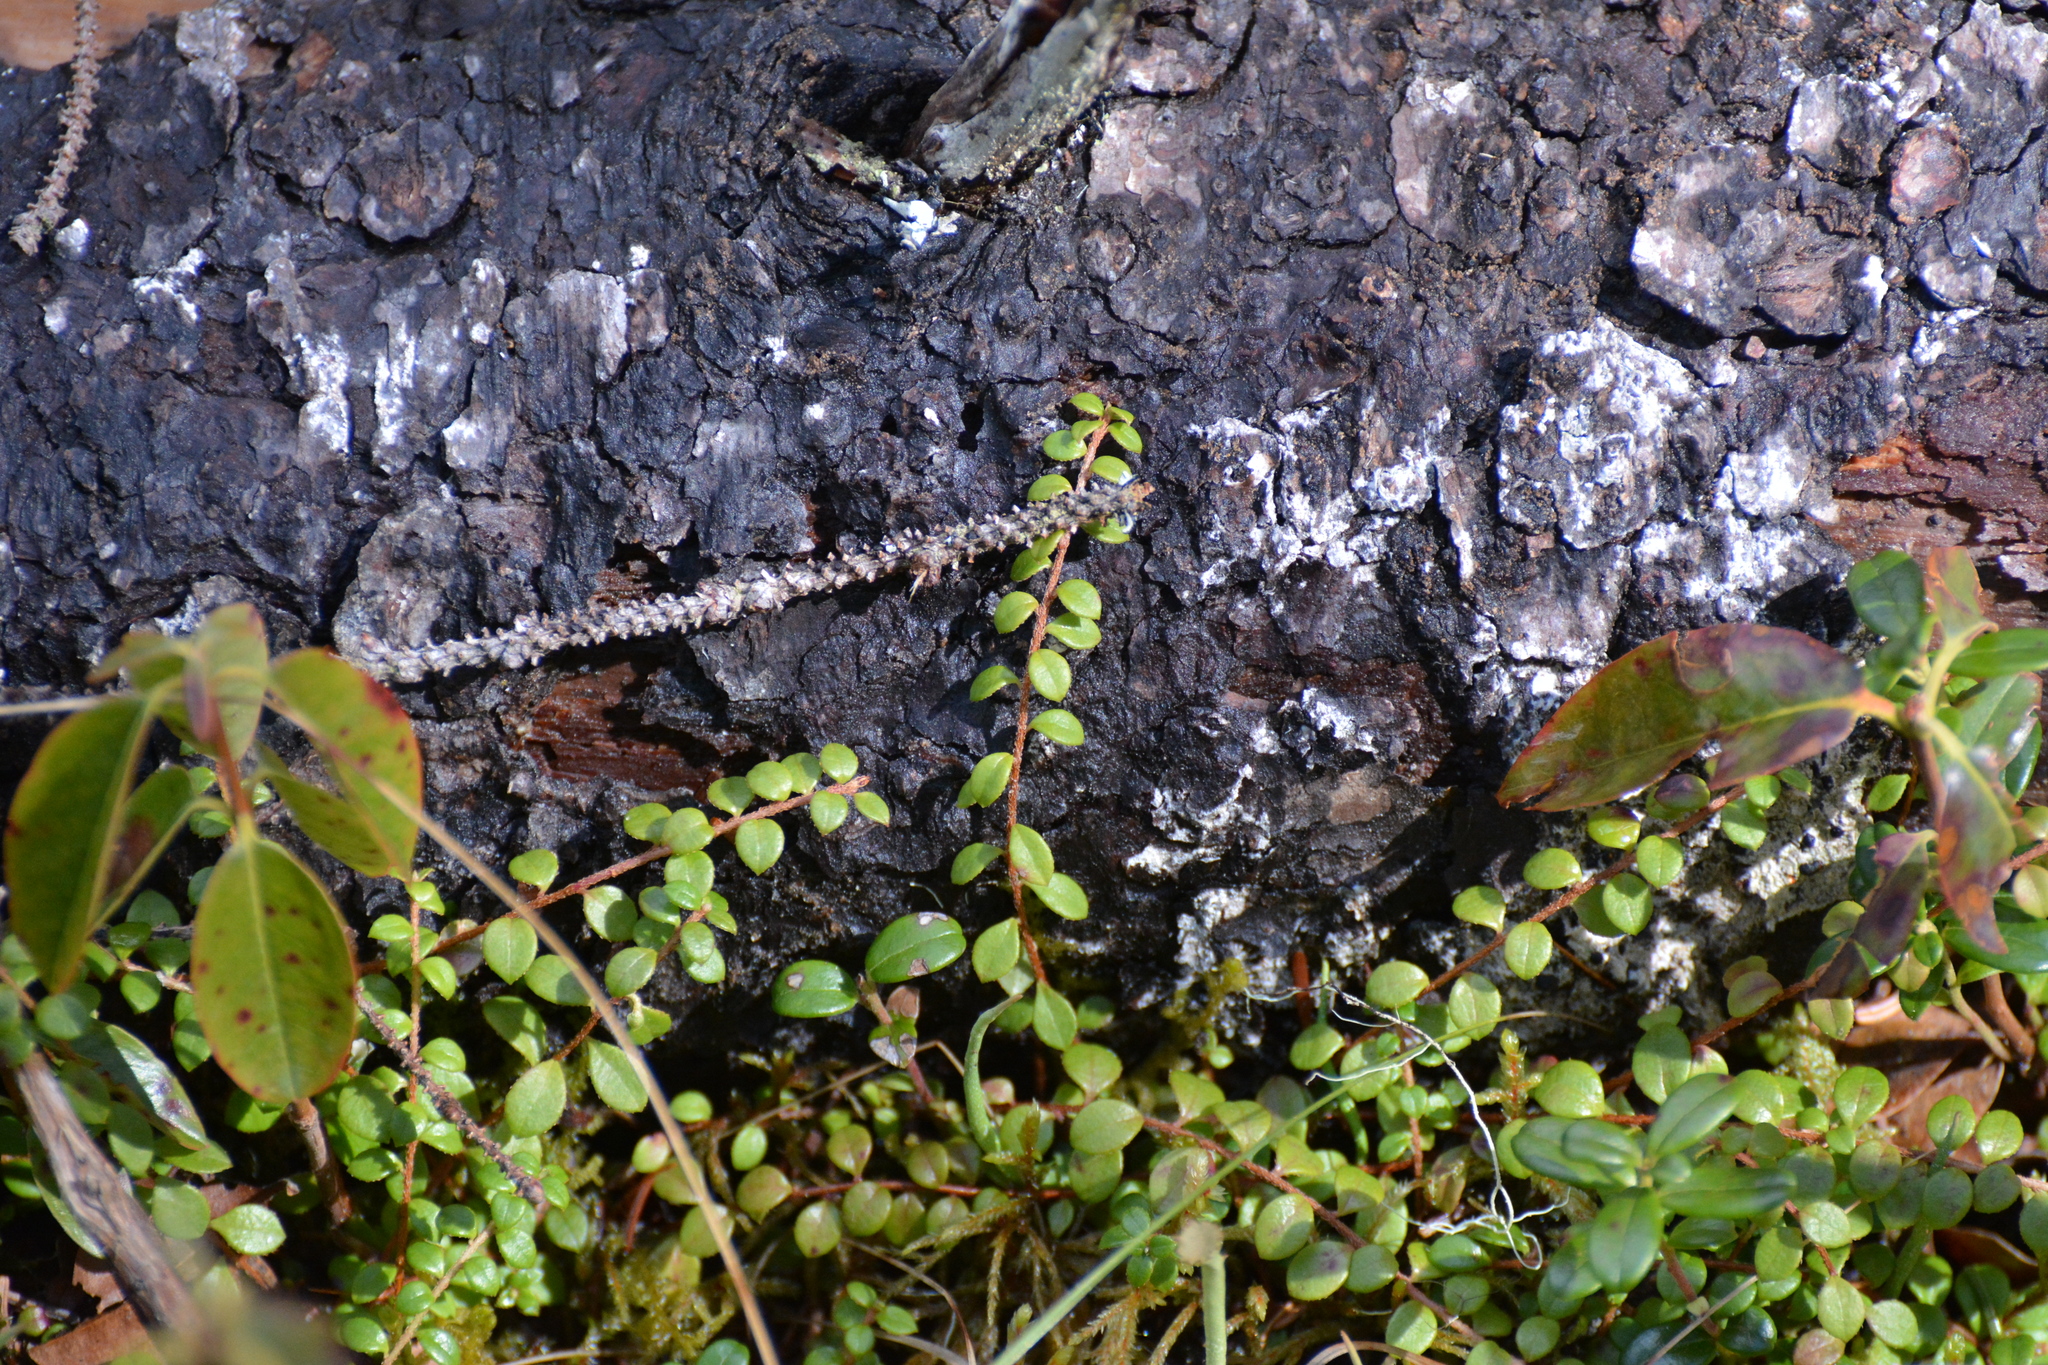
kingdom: Plantae
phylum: Tracheophyta
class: Magnoliopsida
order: Ericales
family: Ericaceae
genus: Gaultheria
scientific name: Gaultheria hispidula
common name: Cancer wintergreen
